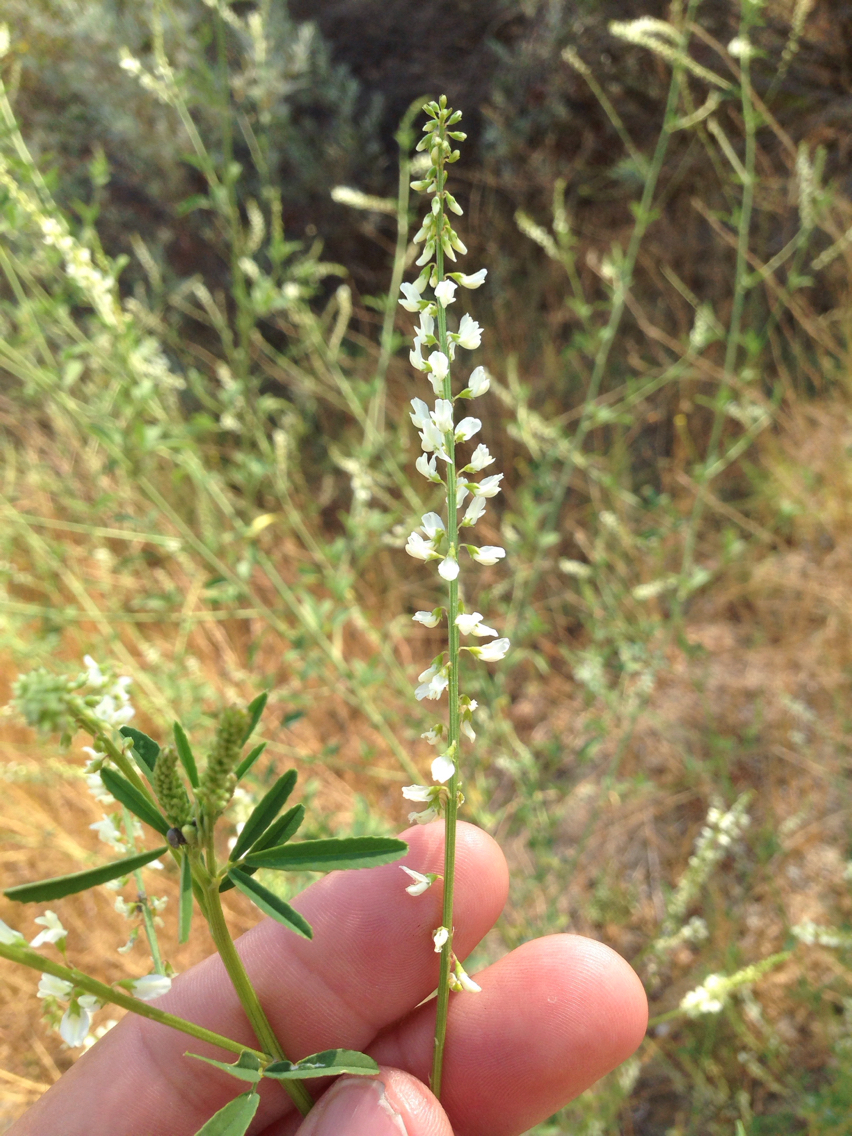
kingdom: Plantae
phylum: Tracheophyta
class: Magnoliopsida
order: Fabales
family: Fabaceae
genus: Melilotus
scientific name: Melilotus albus
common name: White melilot
